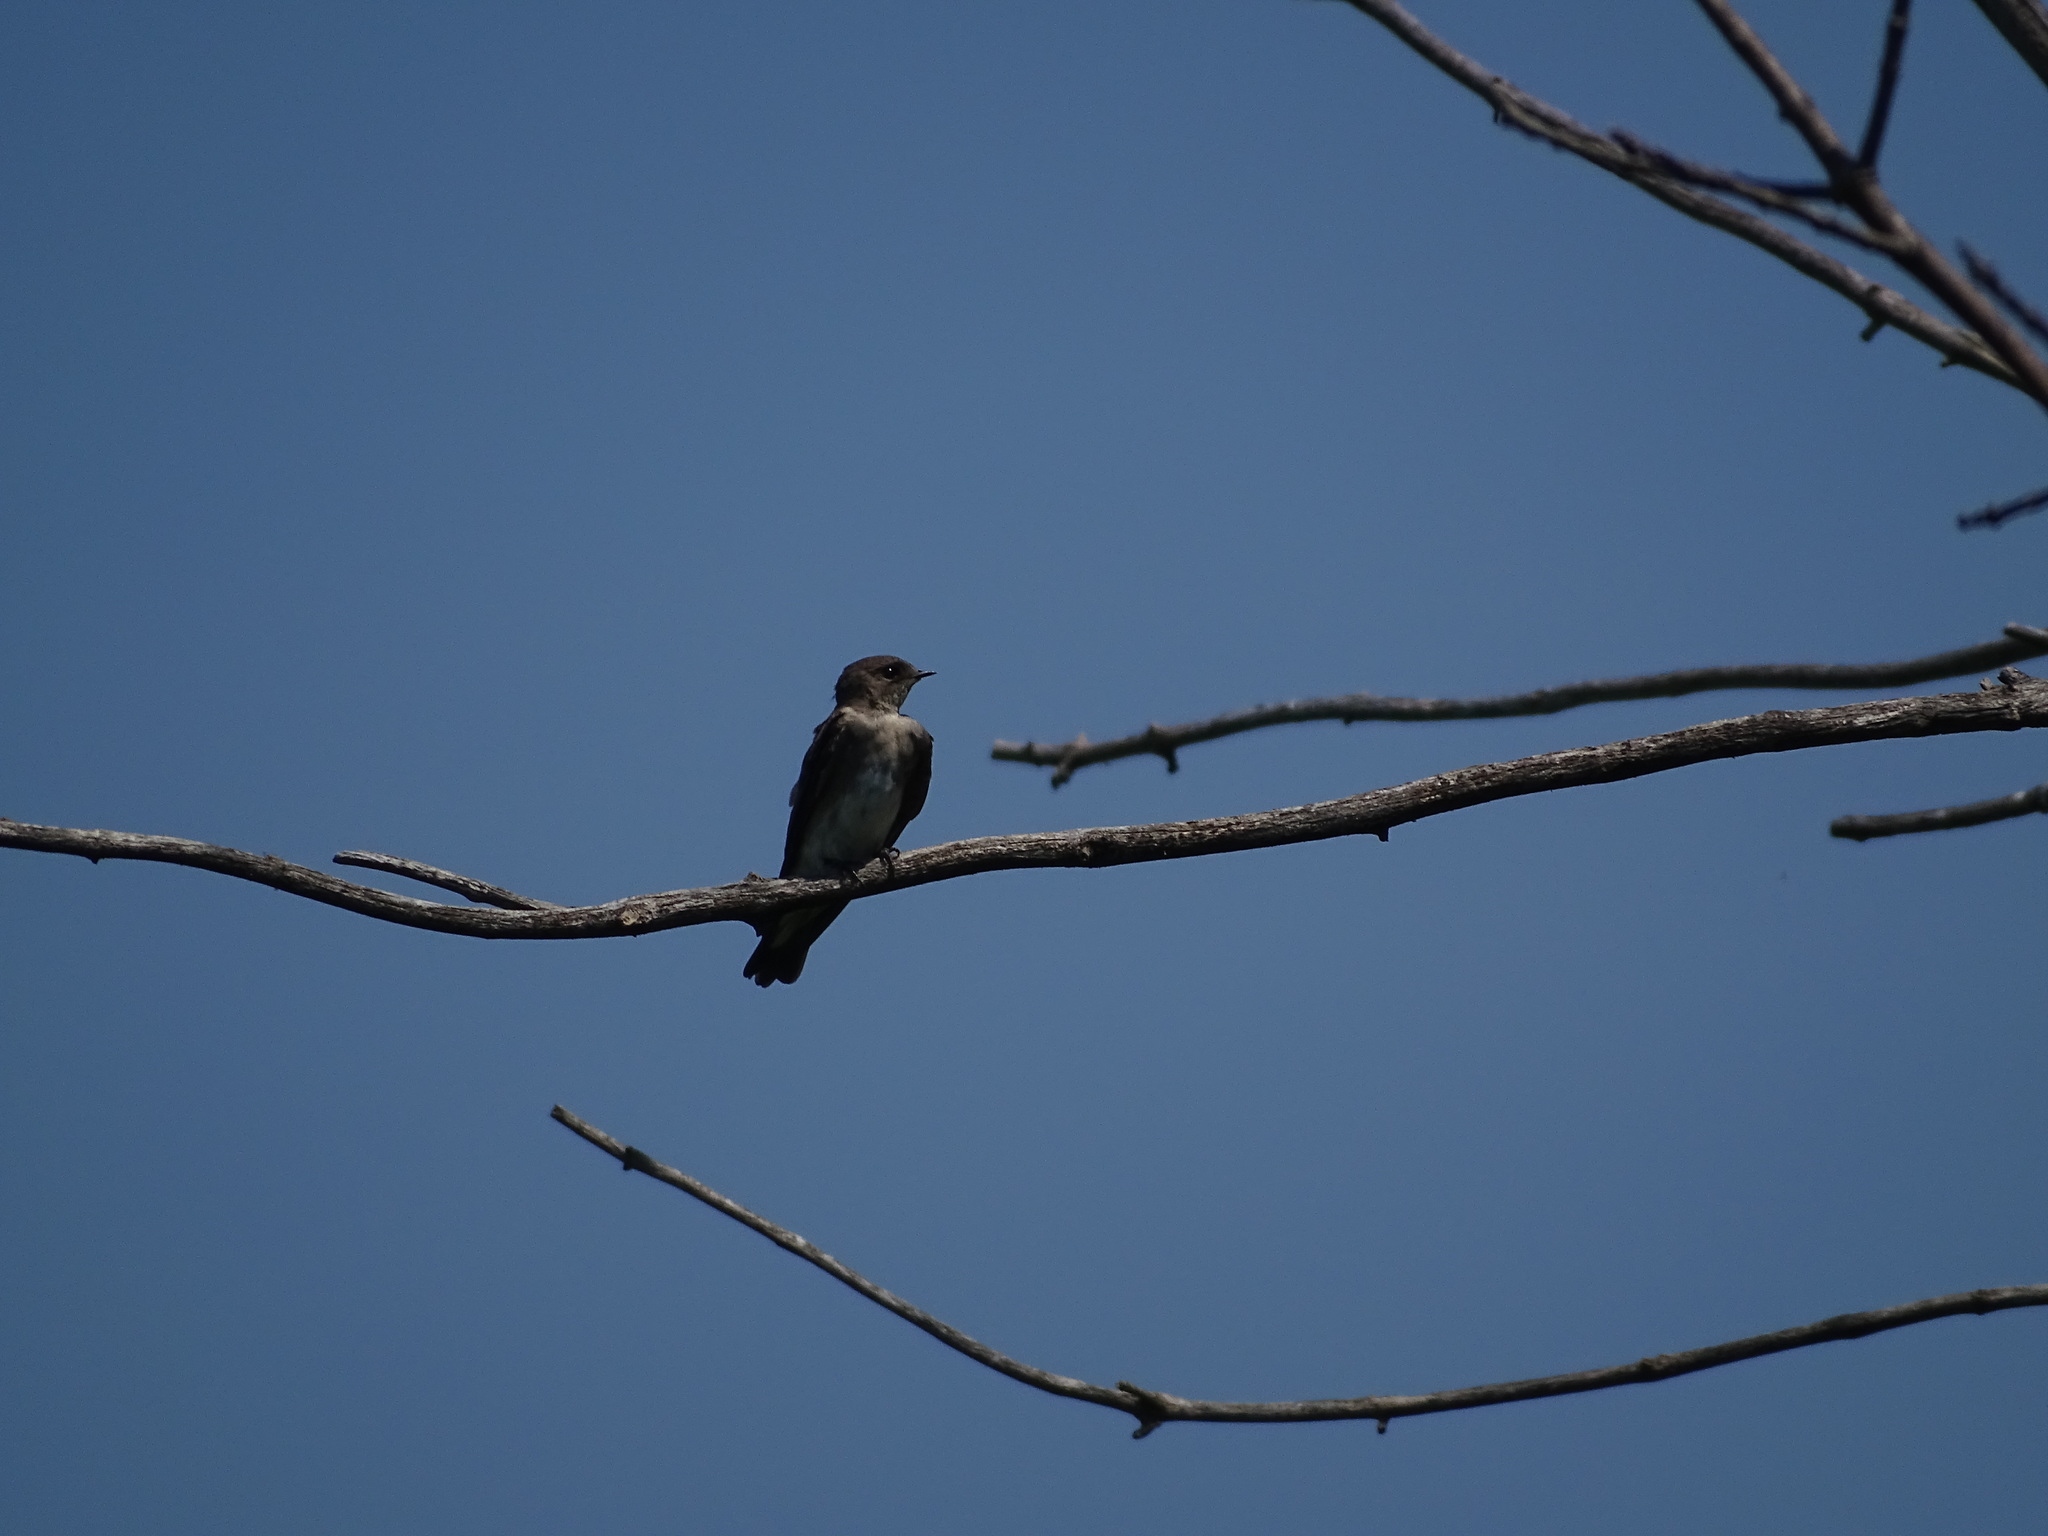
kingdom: Animalia
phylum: Chordata
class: Aves
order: Passeriformes
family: Hirundinidae
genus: Stelgidopteryx
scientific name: Stelgidopteryx serripennis
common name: Northern rough-winged swallow
